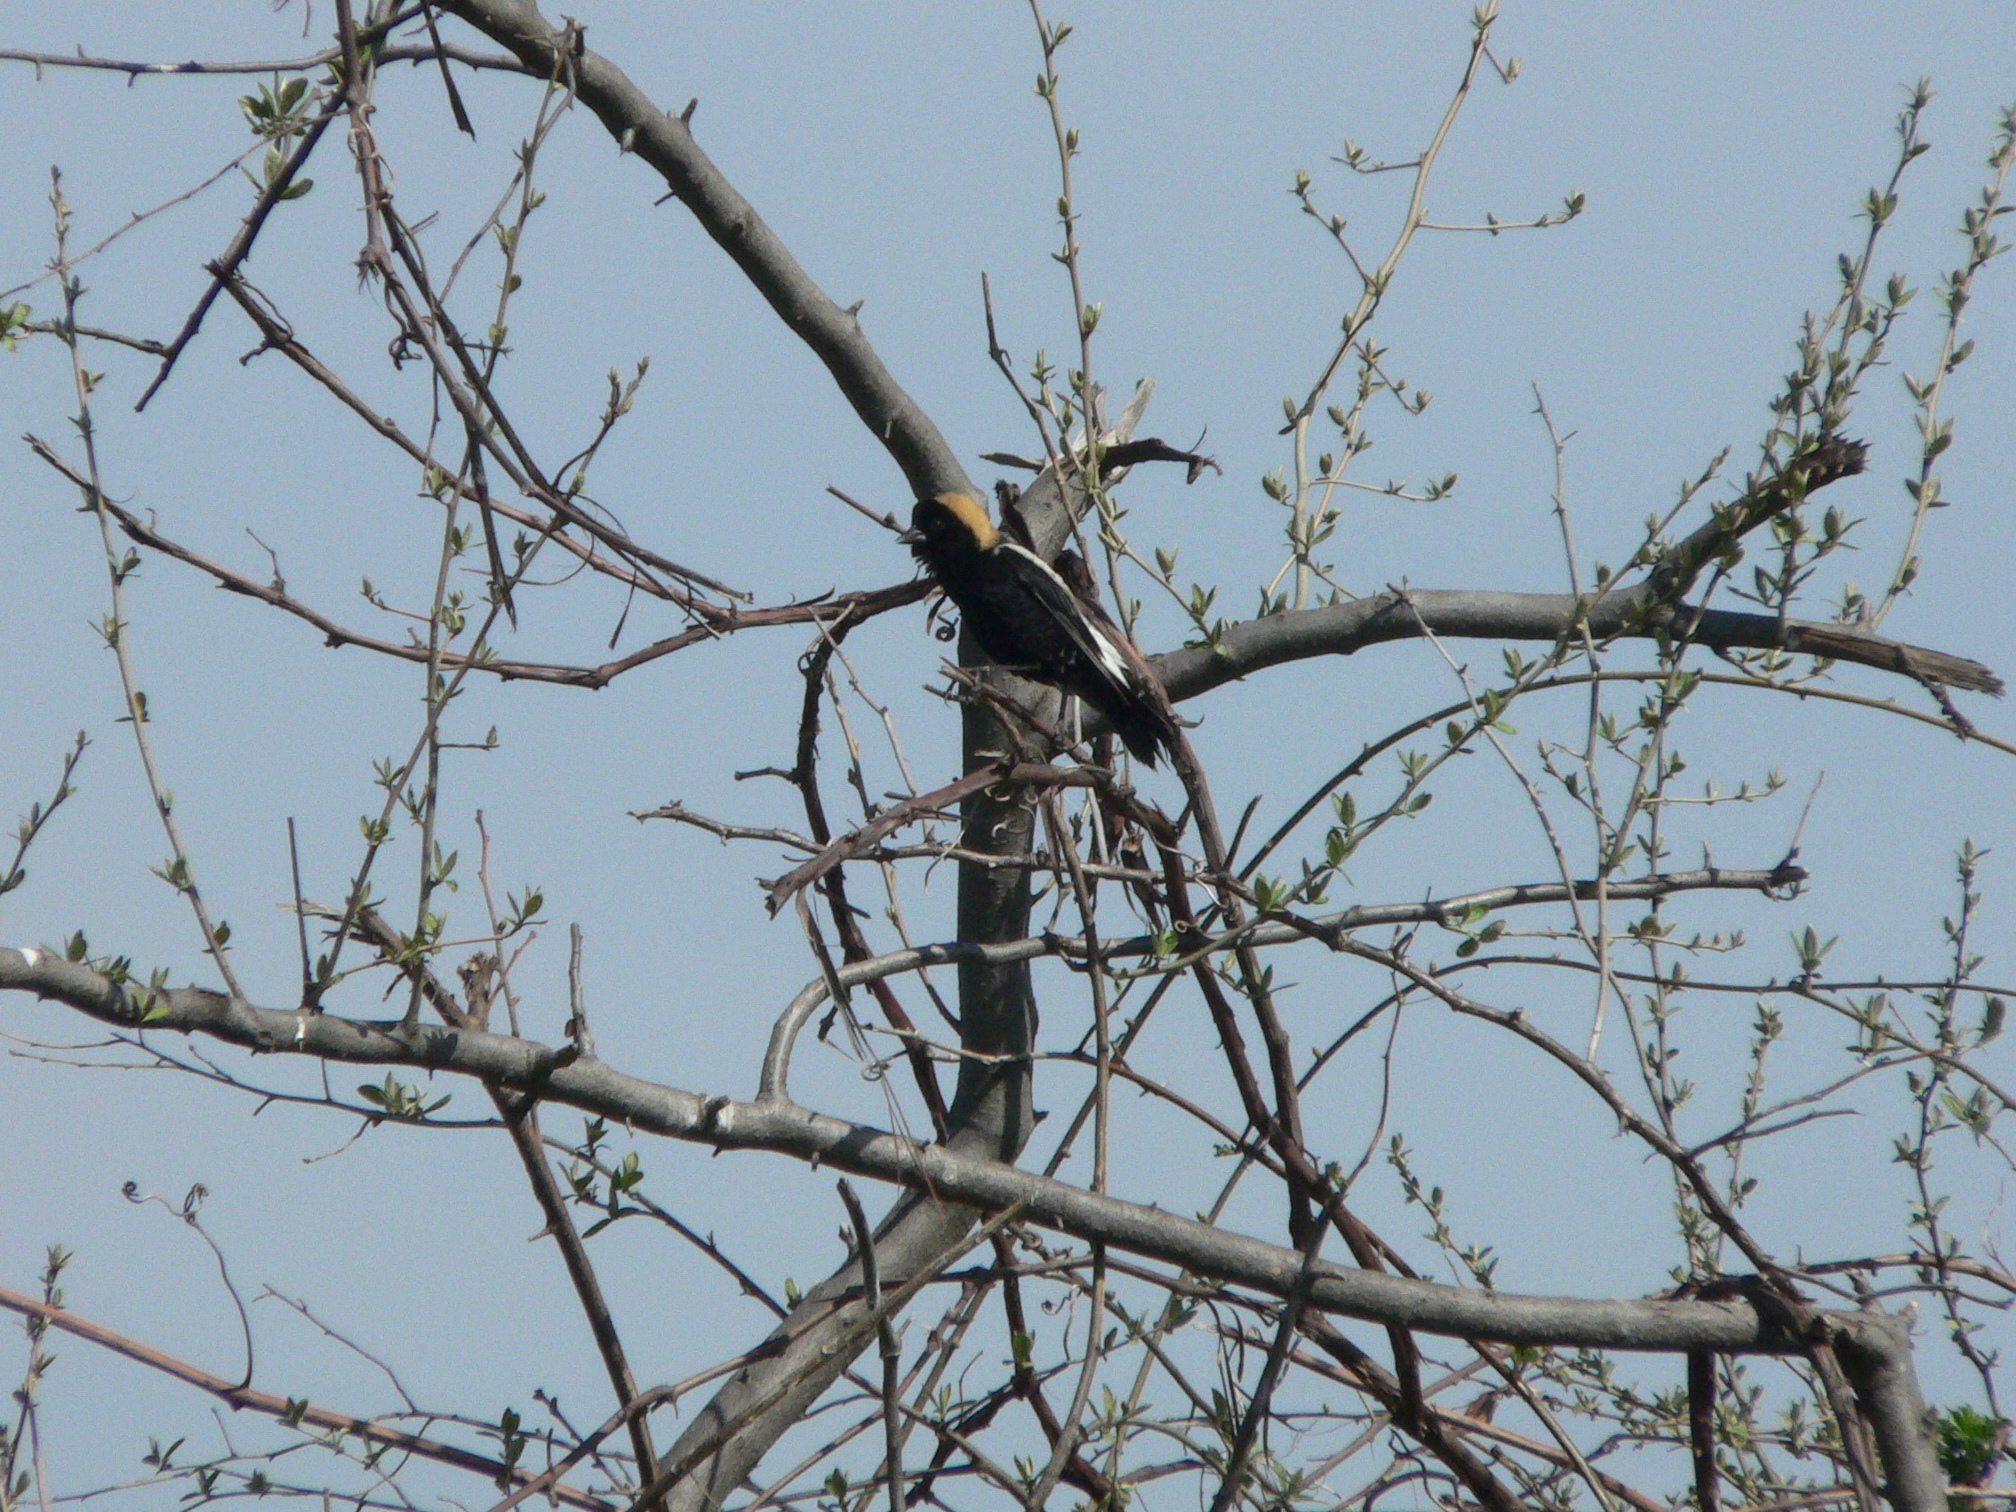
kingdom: Animalia
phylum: Chordata
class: Aves
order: Passeriformes
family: Icteridae
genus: Dolichonyx
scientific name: Dolichonyx oryzivorus
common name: Bobolink
